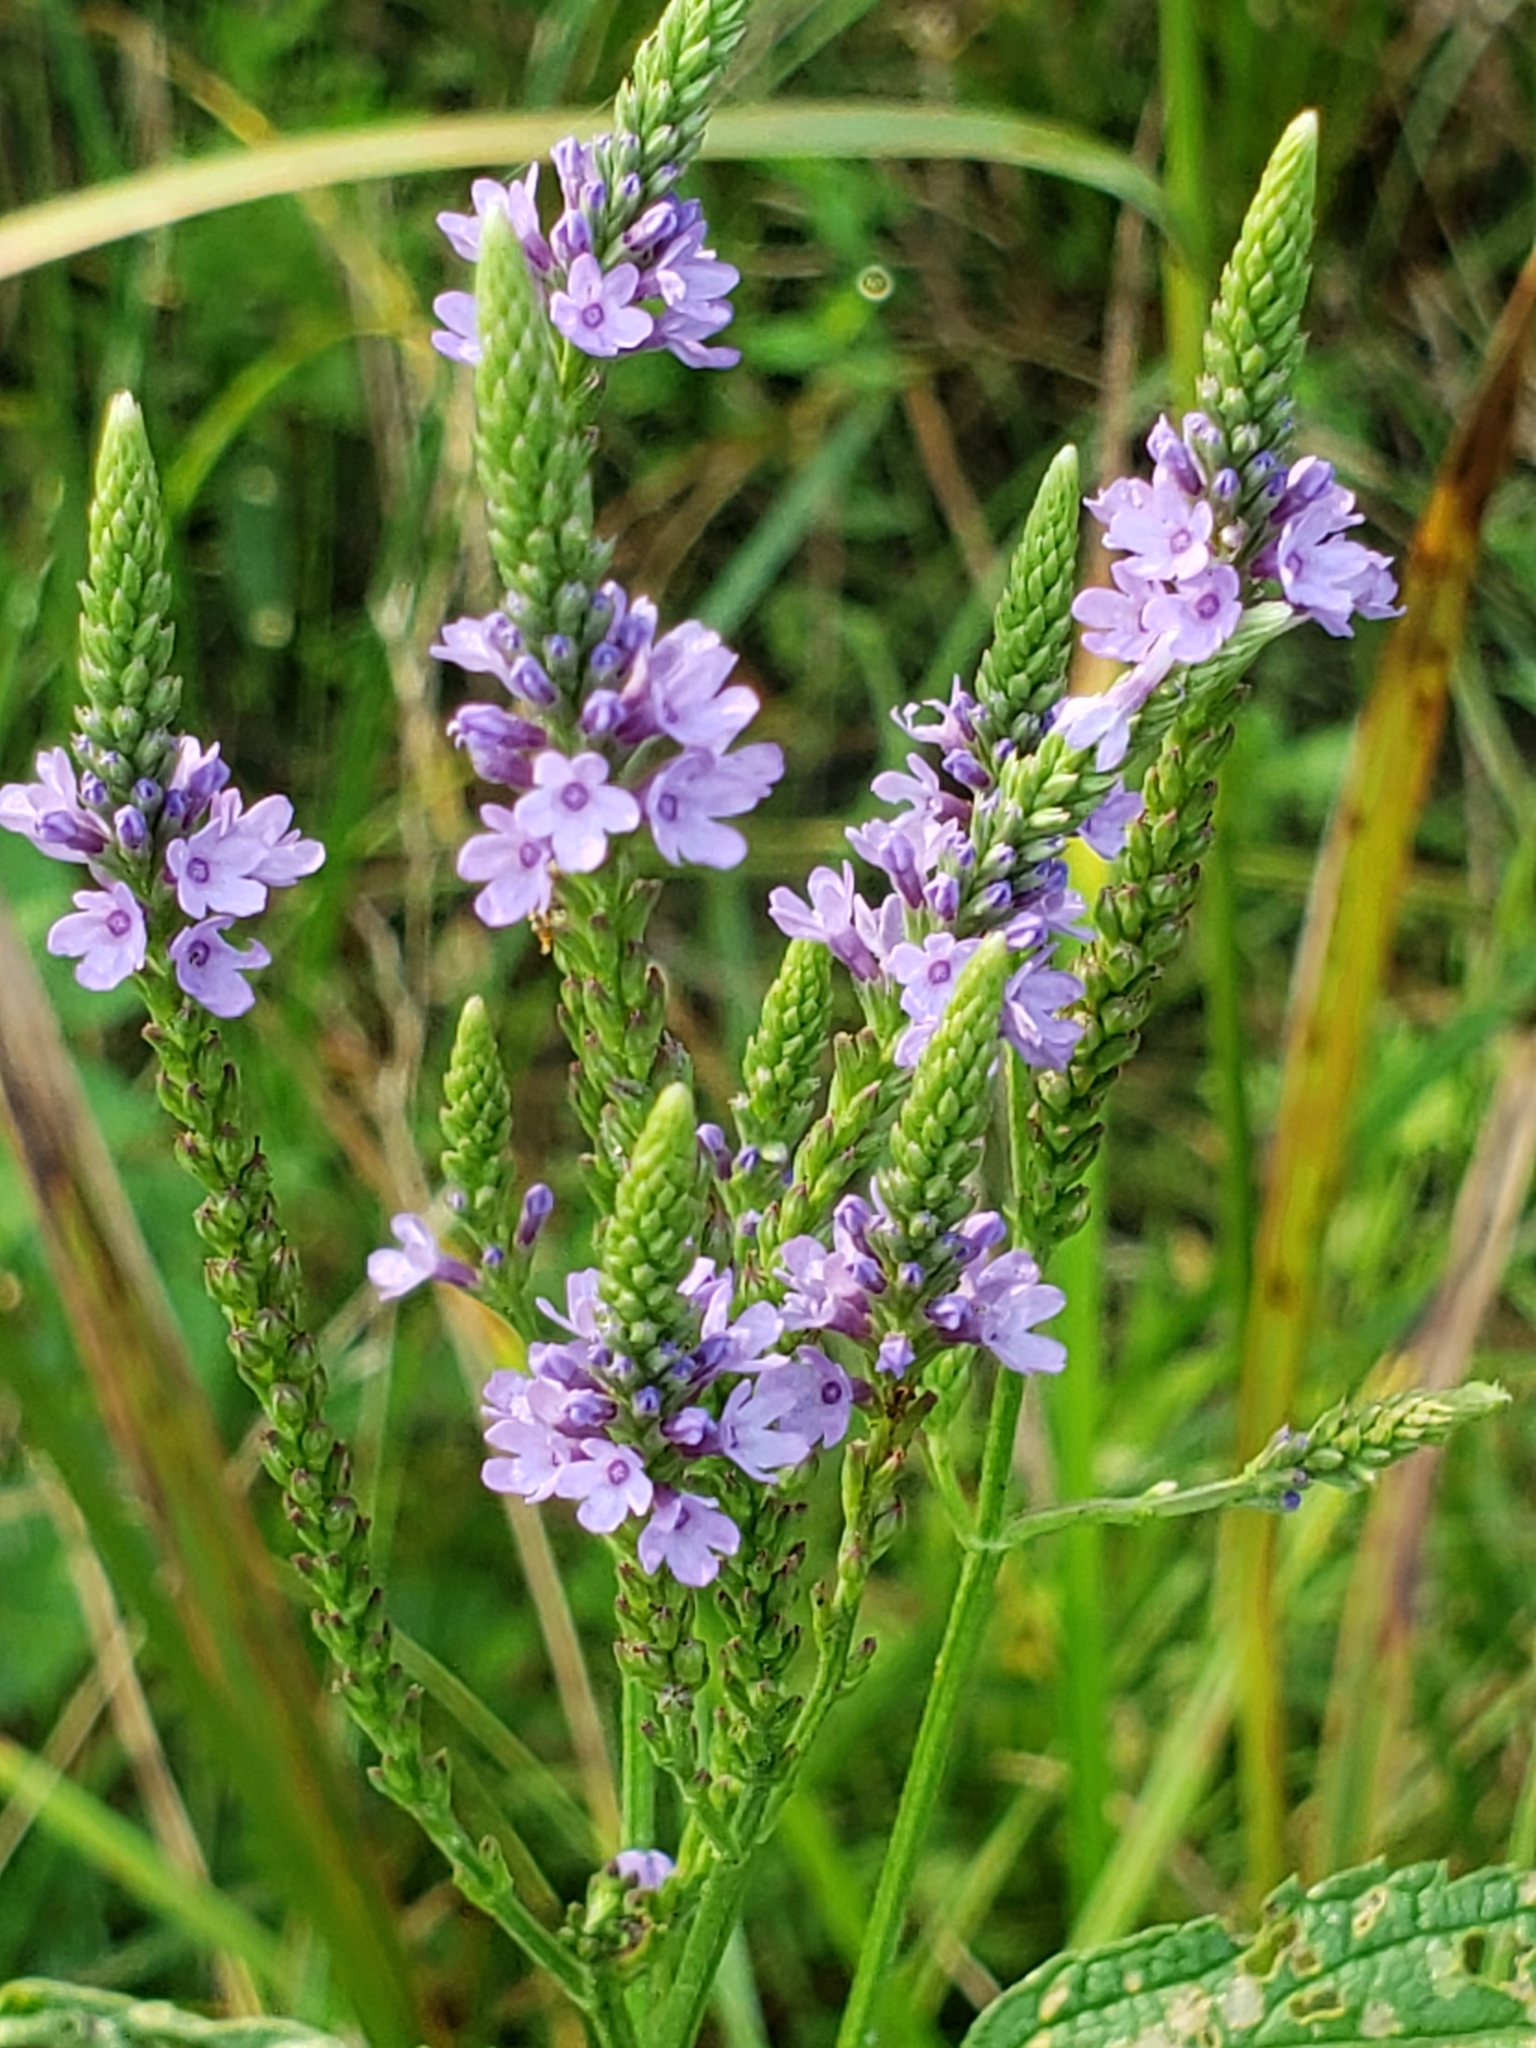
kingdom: Plantae
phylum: Tracheophyta
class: Magnoliopsida
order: Lamiales
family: Verbenaceae
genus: Verbena
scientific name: Verbena hastata
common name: American blue vervain
